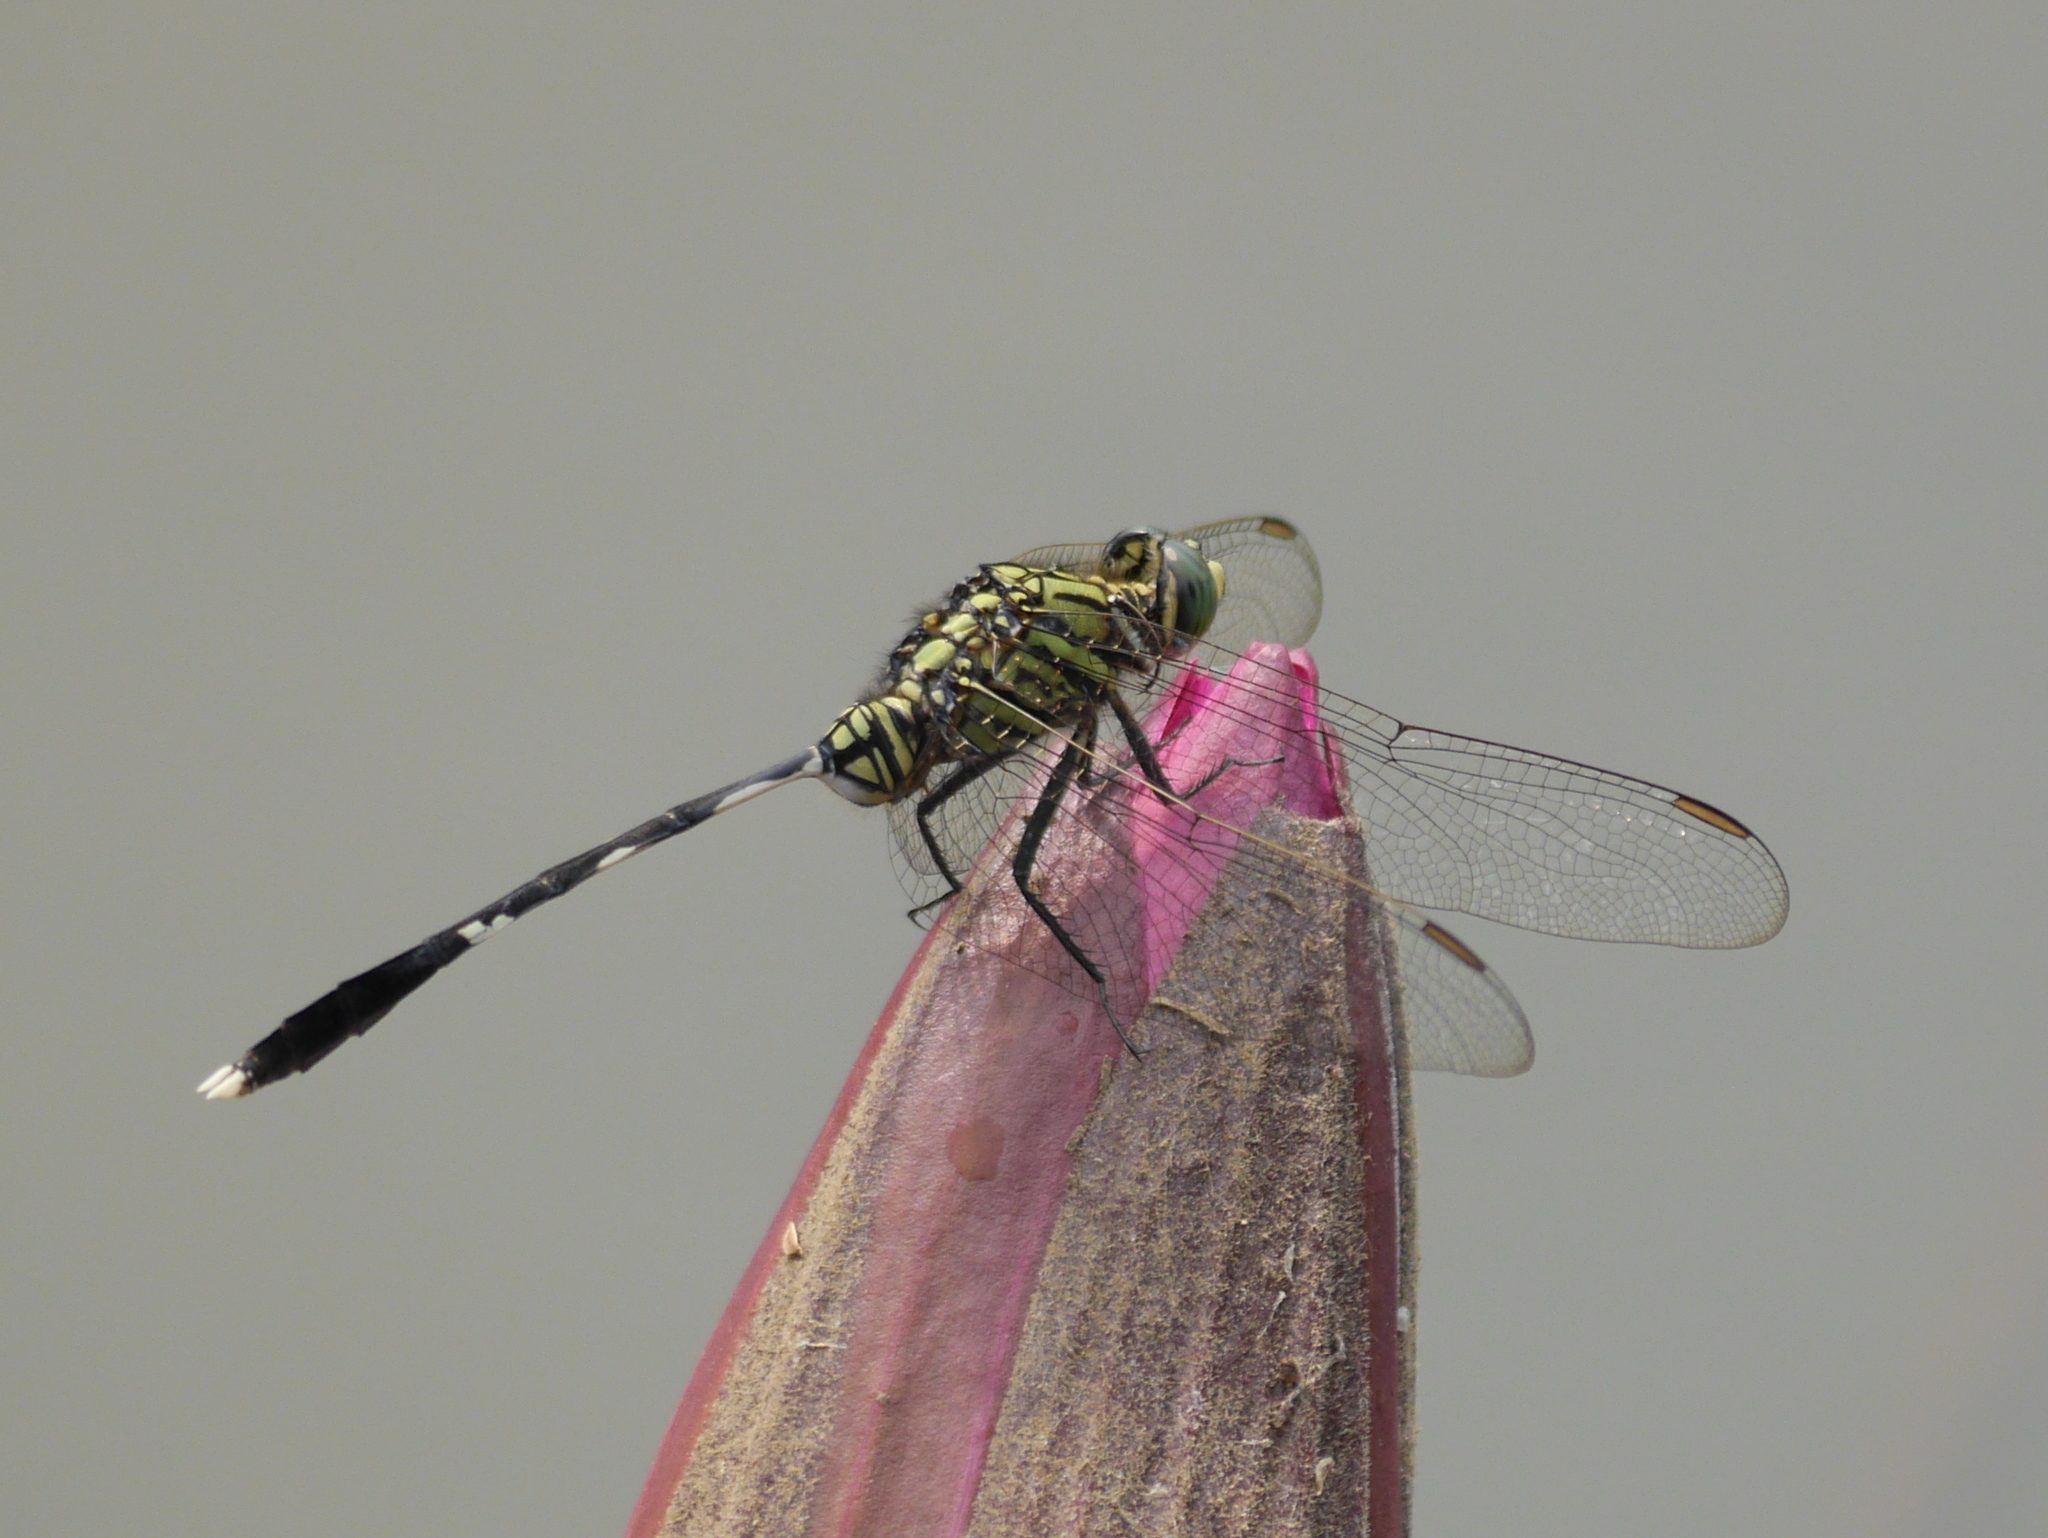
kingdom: Animalia
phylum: Arthropoda
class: Insecta
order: Odonata
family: Libellulidae
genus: Orthetrum
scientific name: Orthetrum sabina
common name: Slender skimmer
